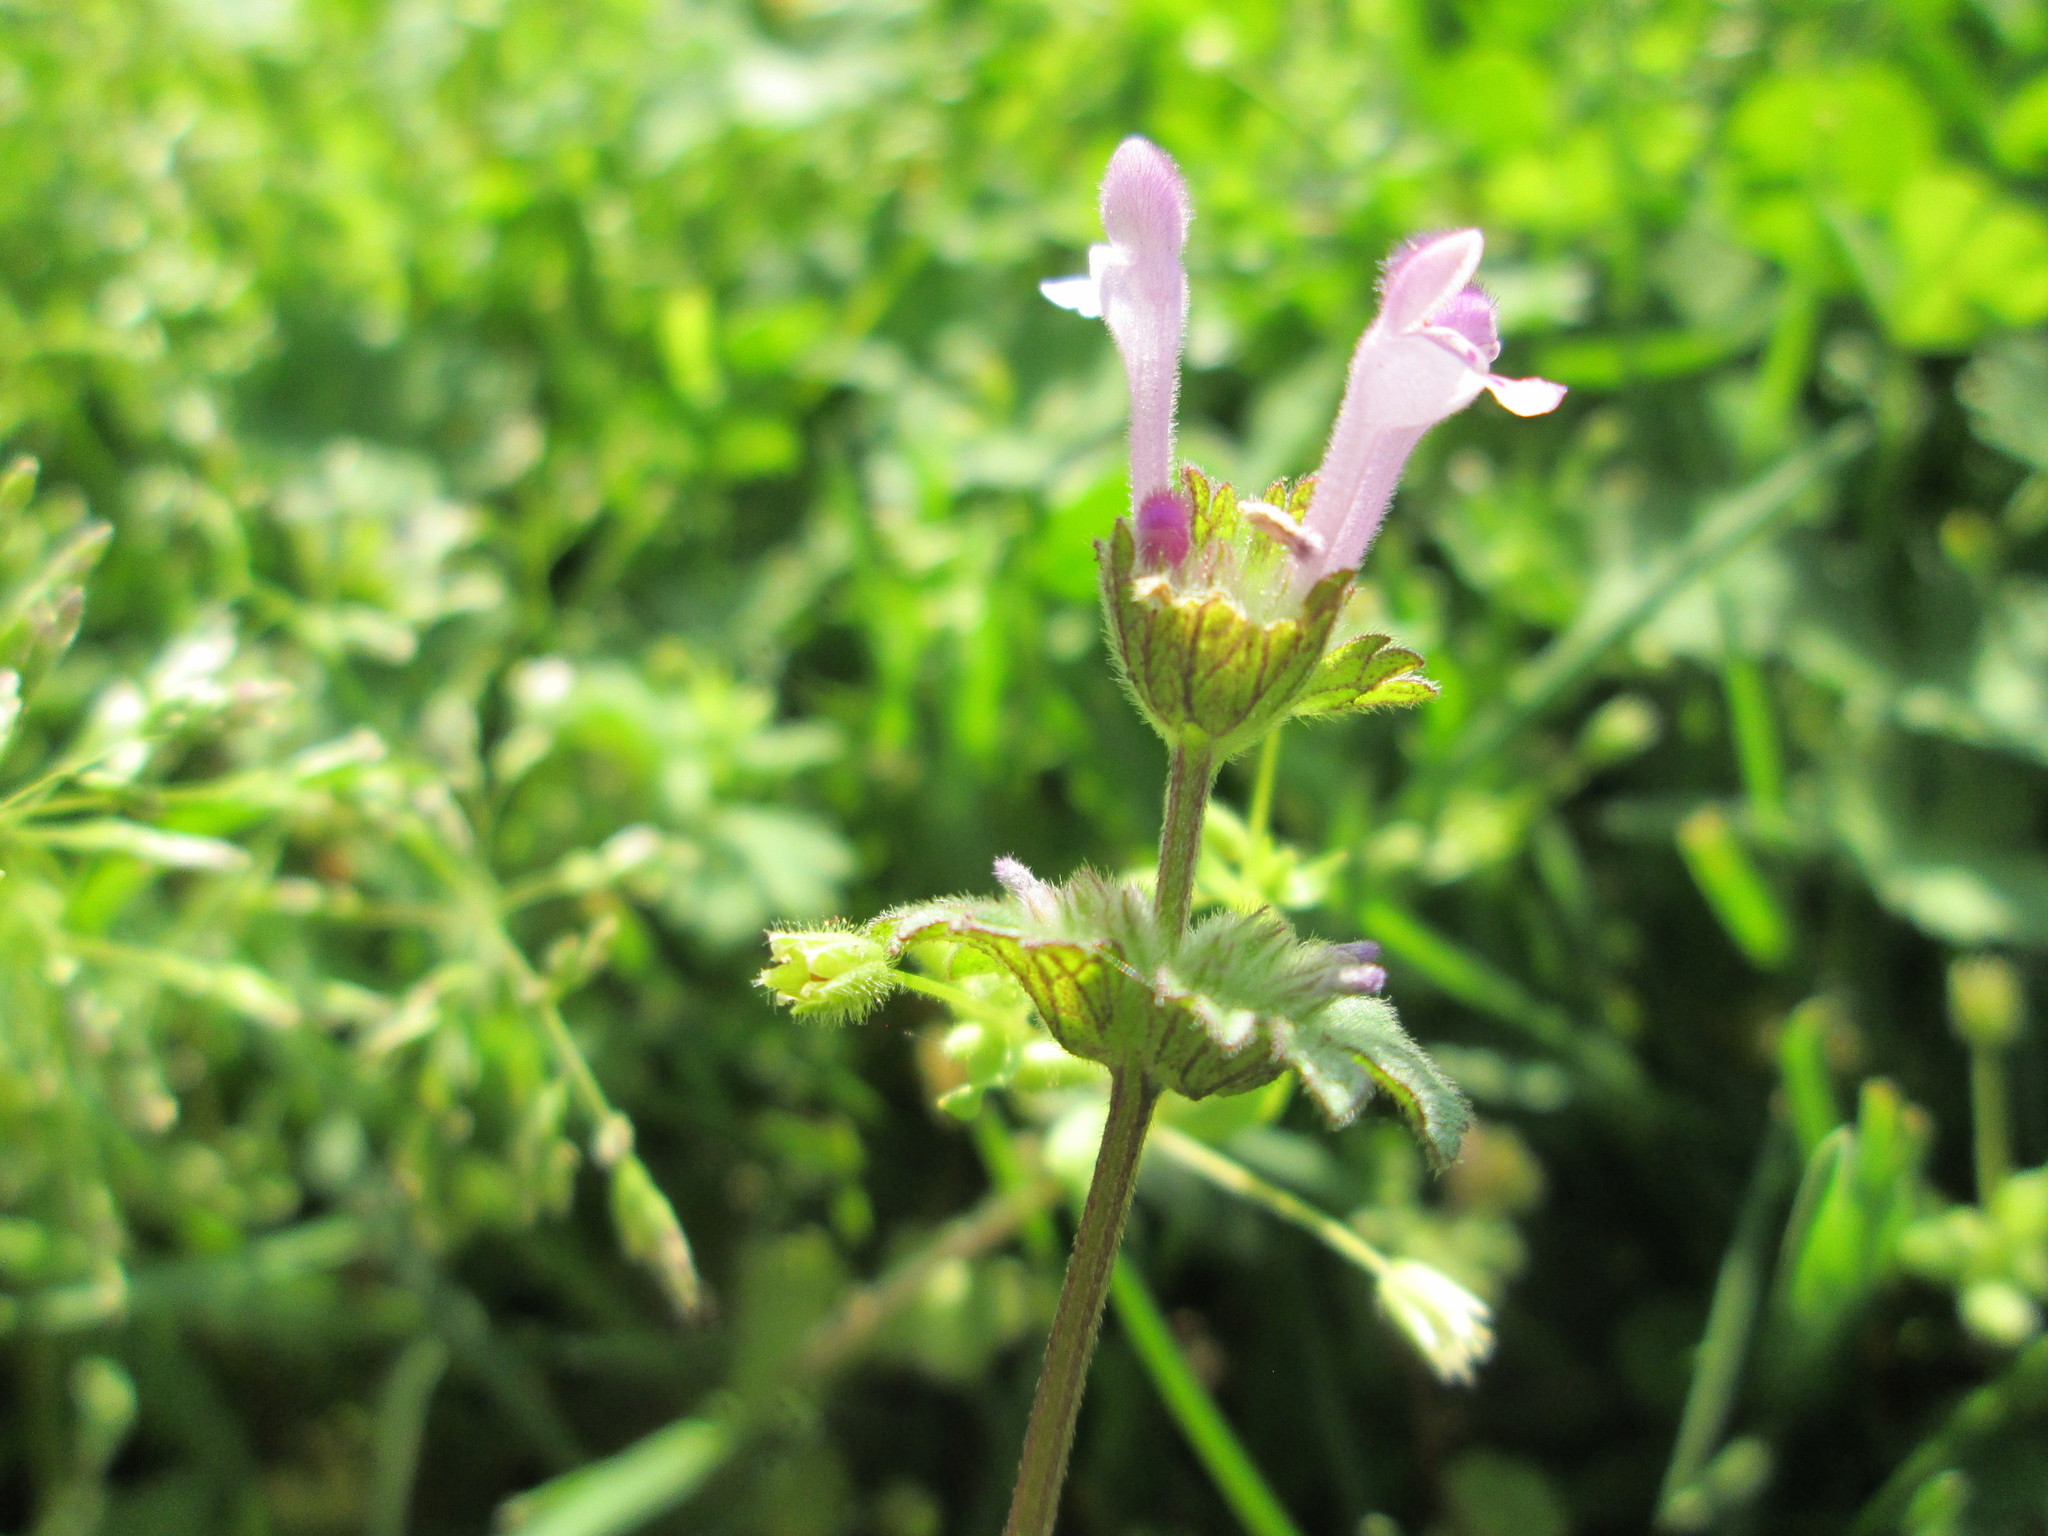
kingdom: Plantae
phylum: Tracheophyta
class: Magnoliopsida
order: Lamiales
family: Lamiaceae
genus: Lamium
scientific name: Lamium amplexicaule
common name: Henbit dead-nettle
